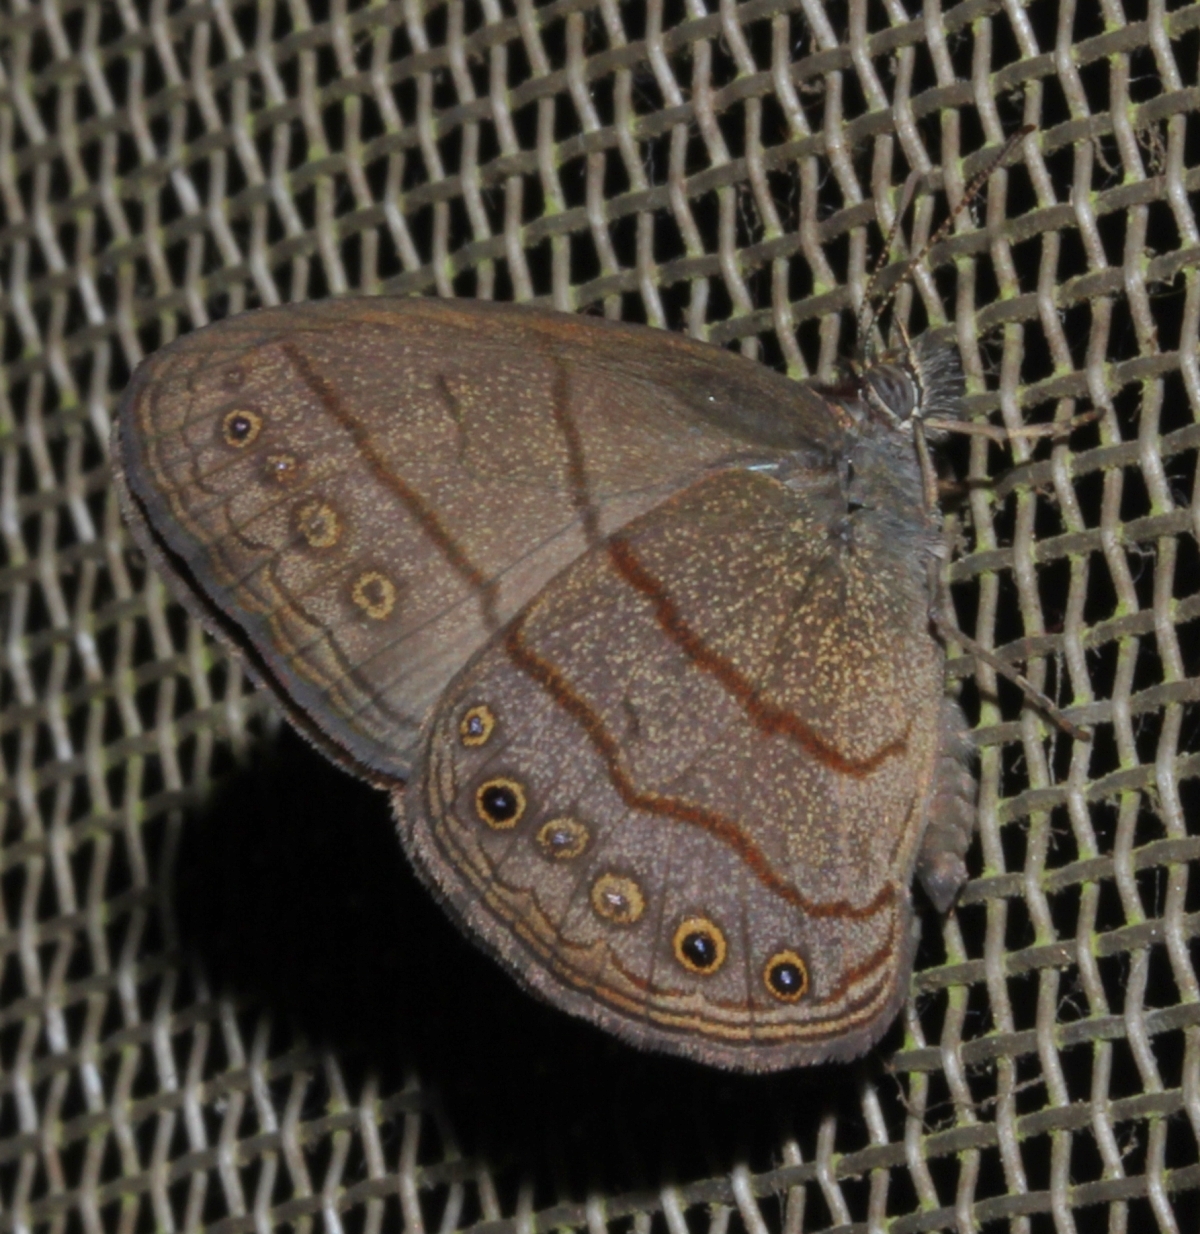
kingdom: Animalia
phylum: Arthropoda
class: Insecta
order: Lepidoptera
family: Nymphalidae
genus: Hermeuptychia
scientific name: Hermeuptychia cucullina
